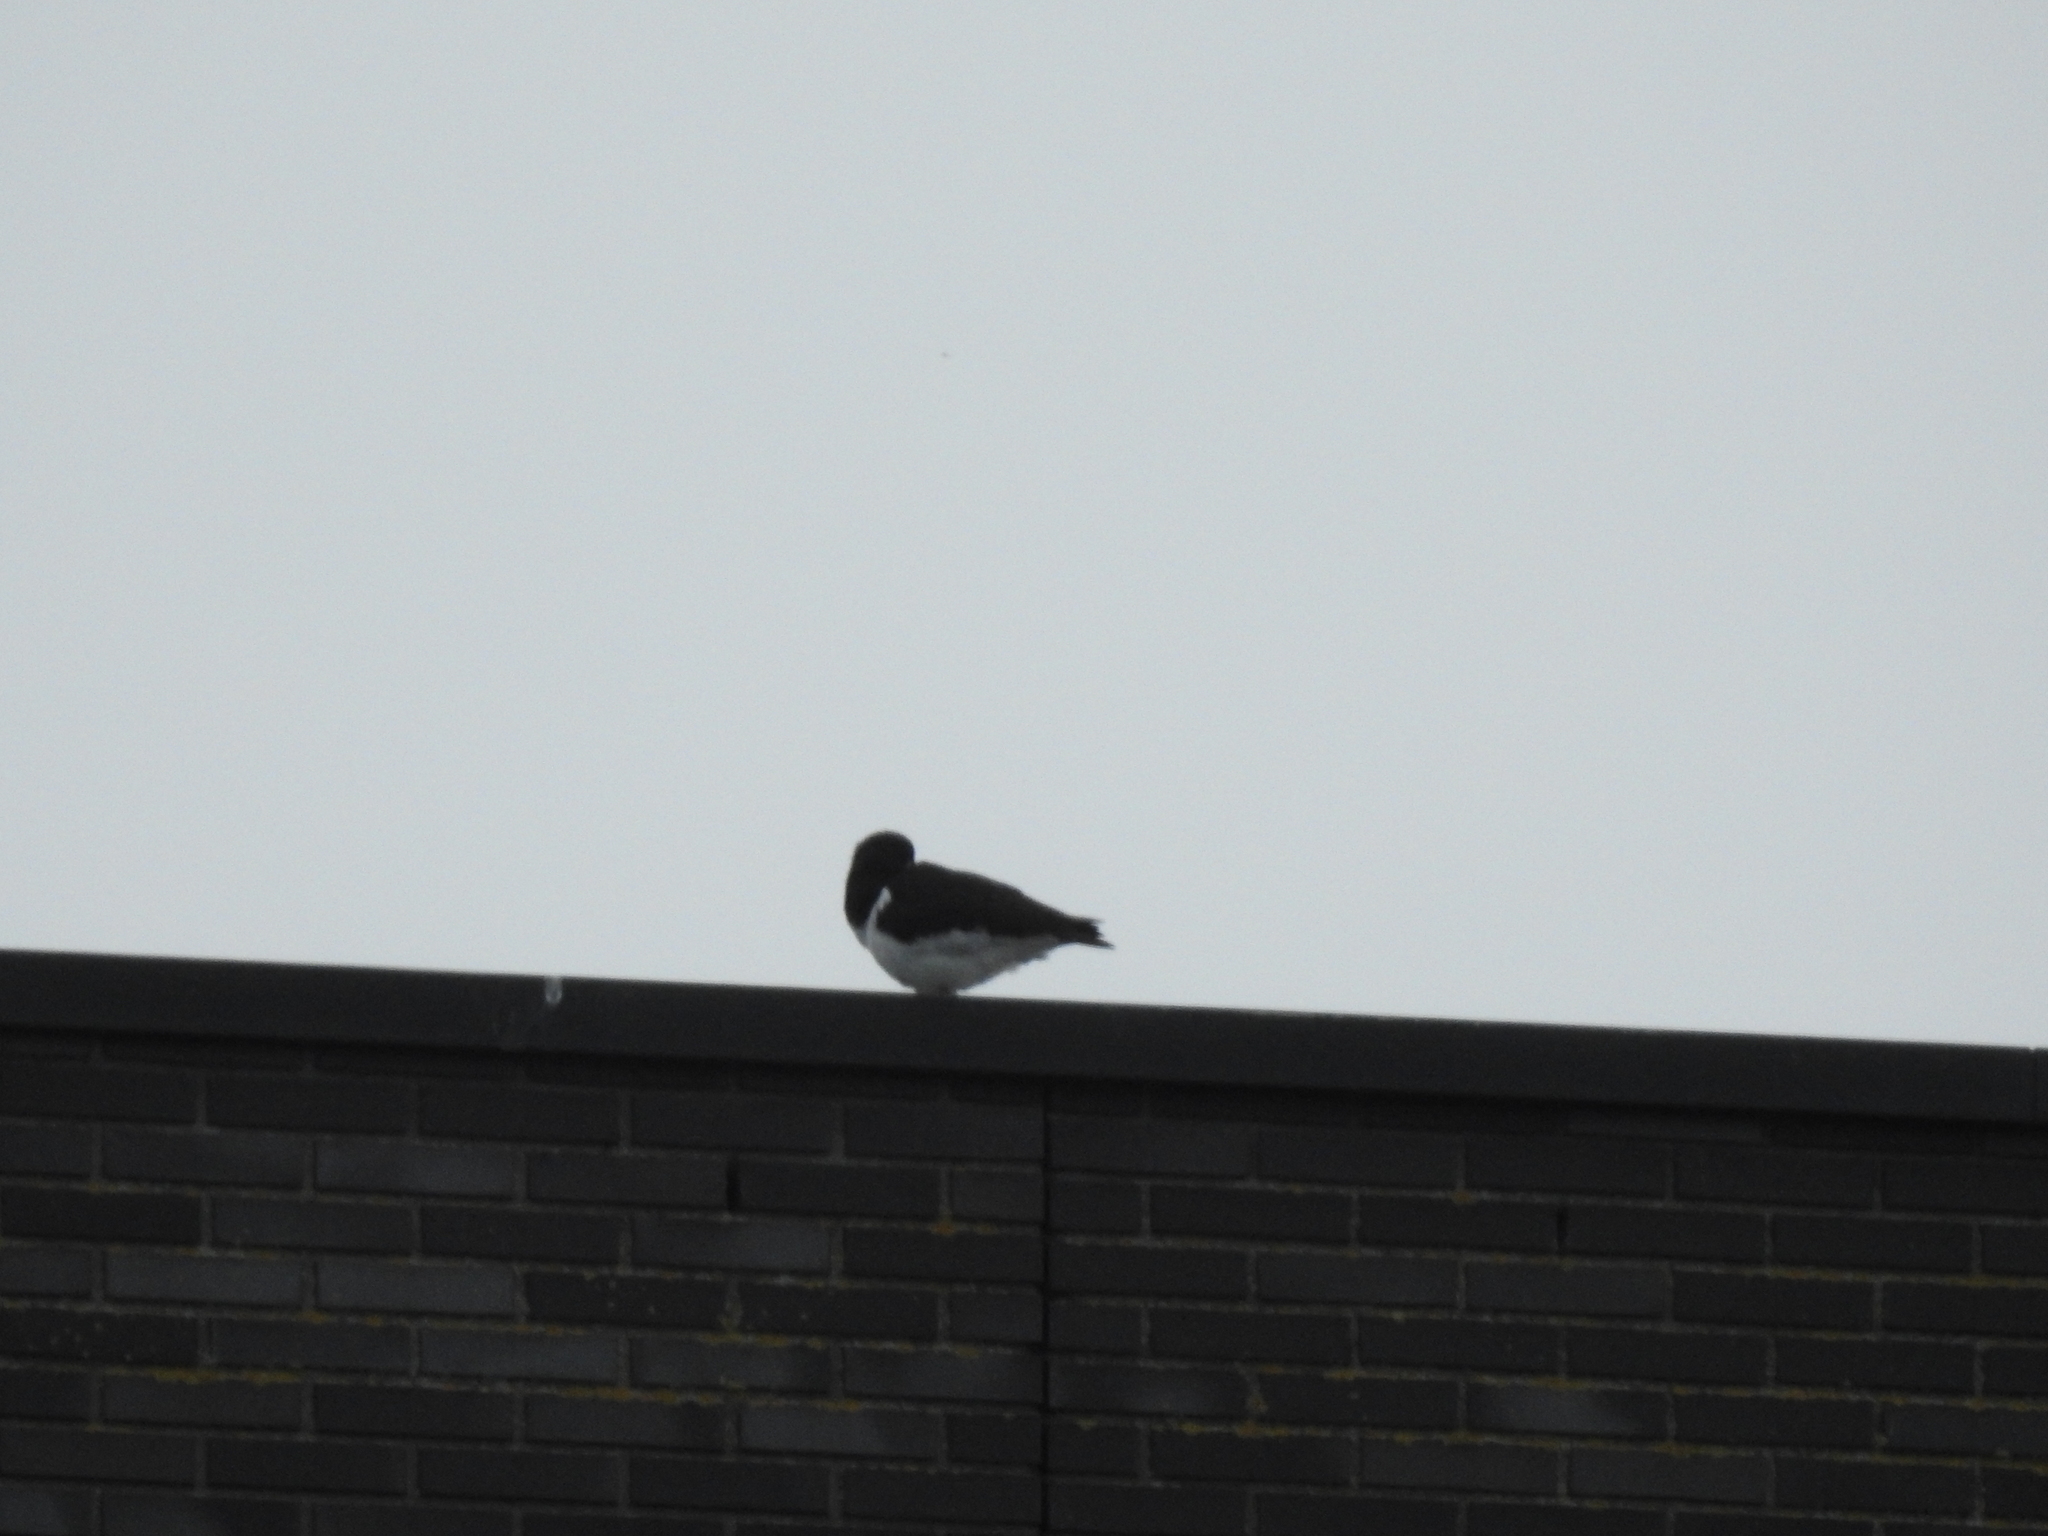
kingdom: Animalia
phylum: Chordata
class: Aves
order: Charadriiformes
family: Haematopodidae
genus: Haematopus
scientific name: Haematopus ostralegus
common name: Eurasian oystercatcher
